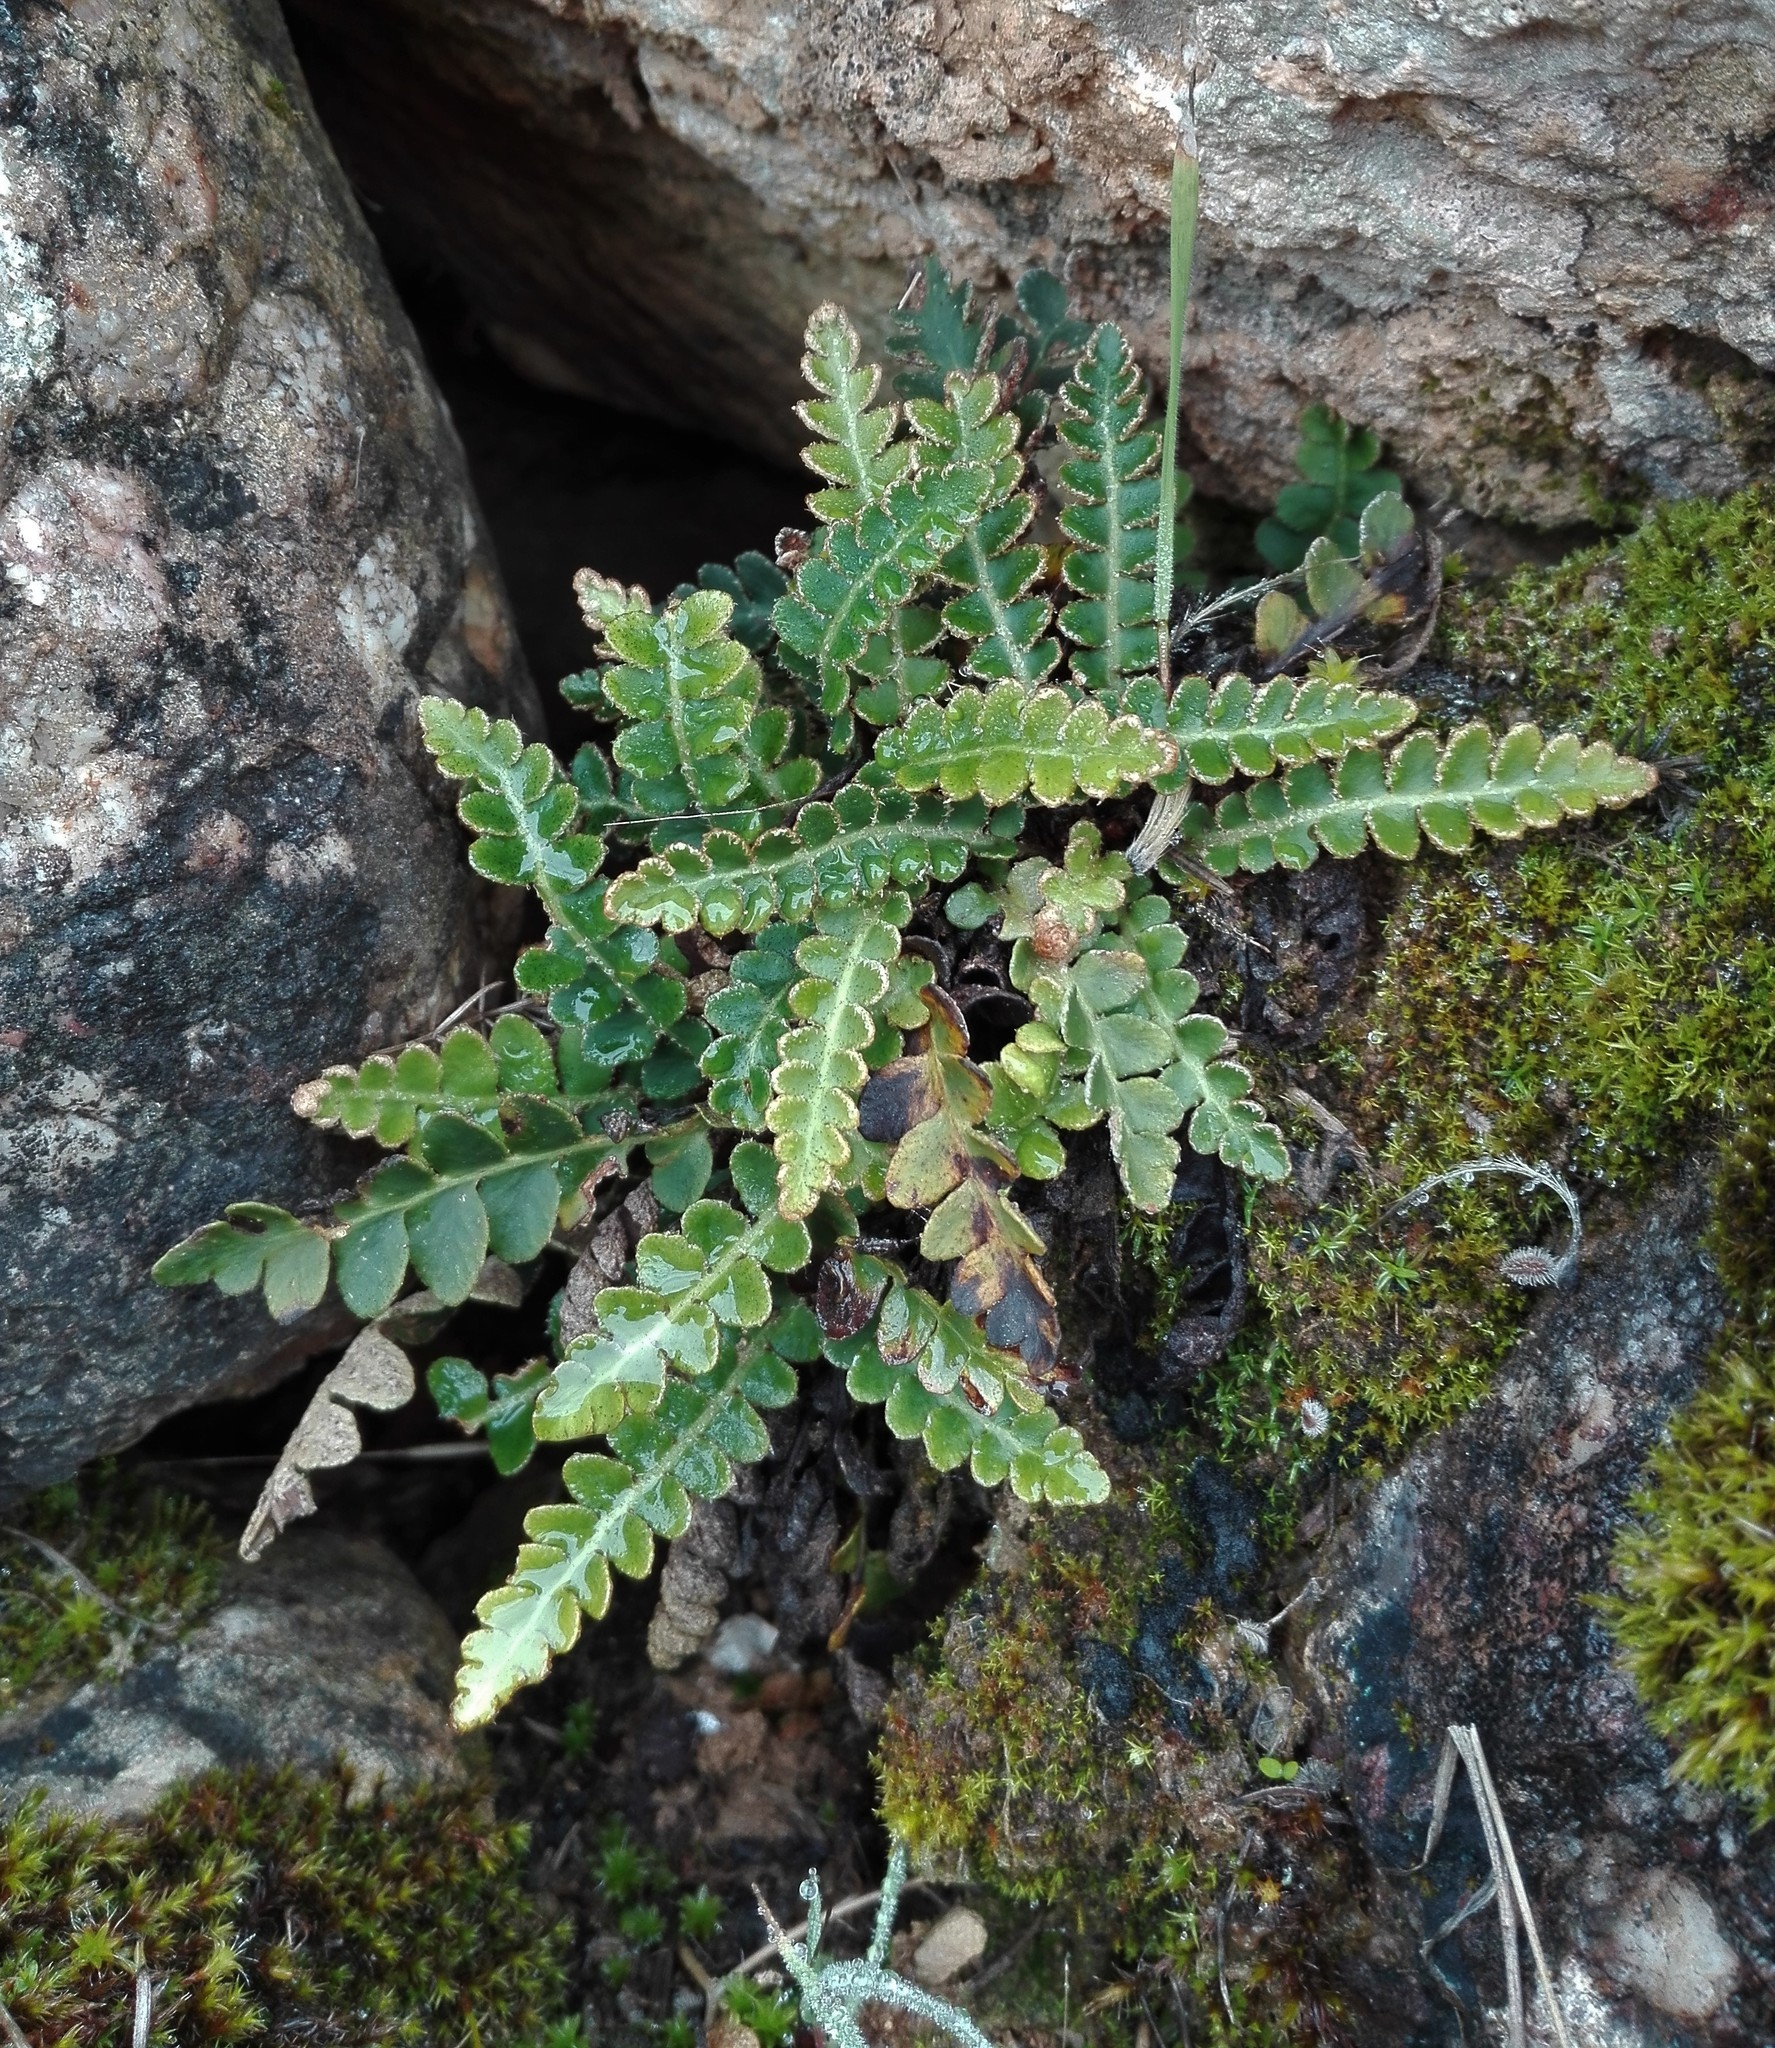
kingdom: Plantae
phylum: Tracheophyta
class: Polypodiopsida
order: Polypodiales
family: Aspleniaceae
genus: Asplenium
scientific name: Asplenium ceterach
